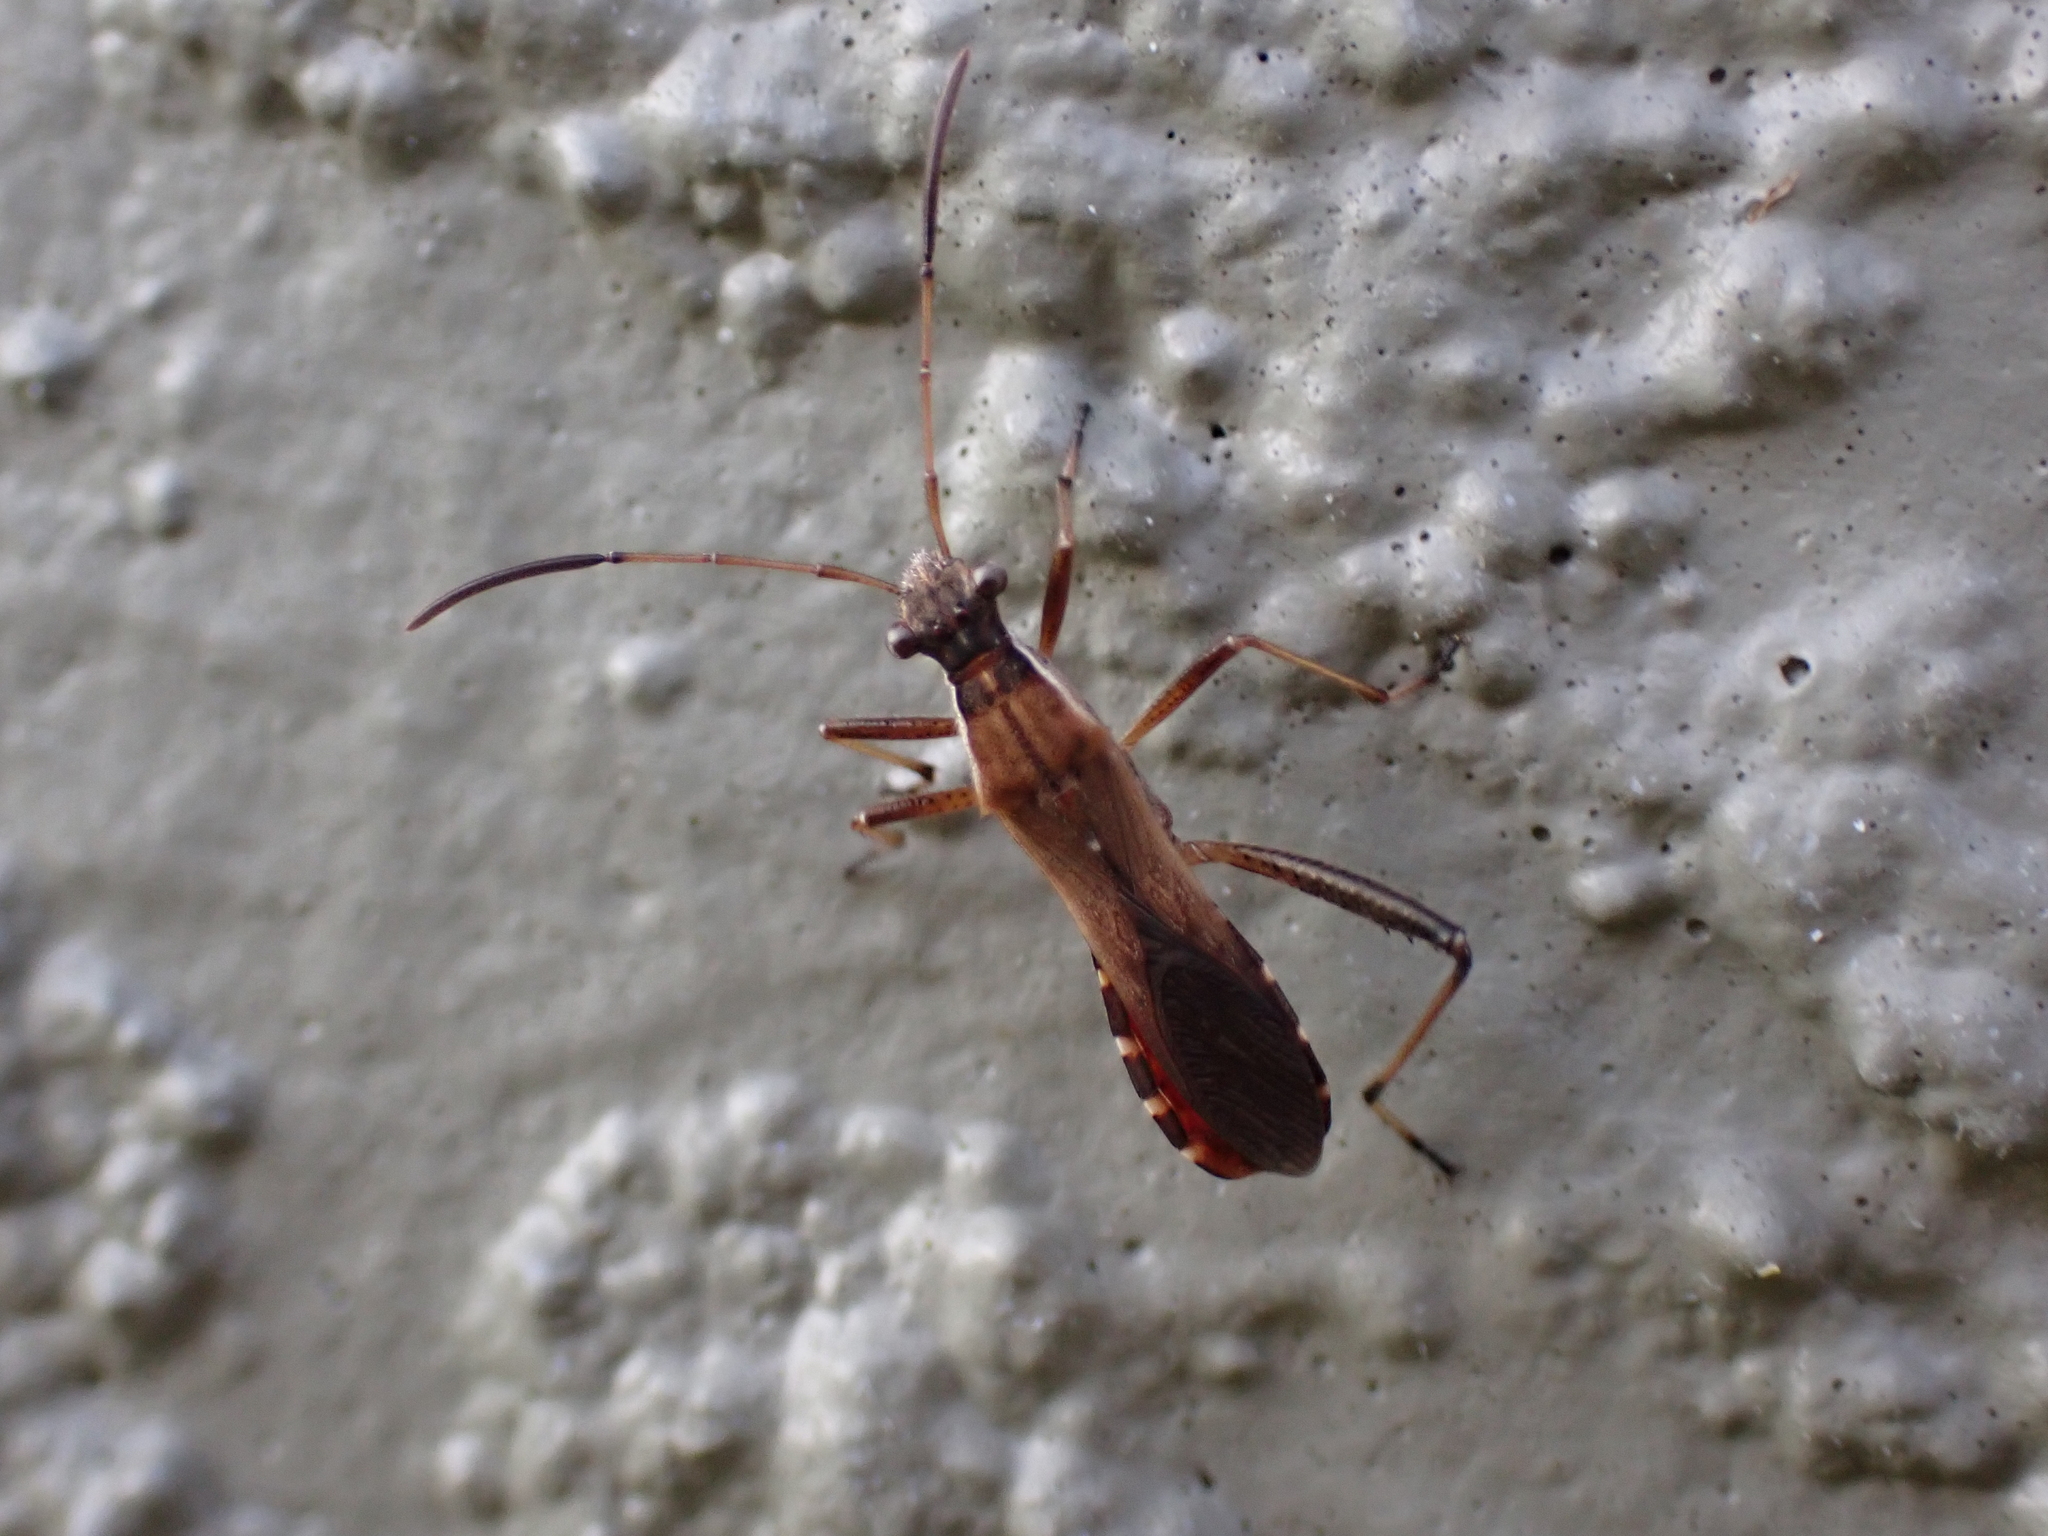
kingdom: Animalia
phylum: Arthropoda
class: Insecta
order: Hemiptera
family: Alydidae
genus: Alydus
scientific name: Alydus pilosulus
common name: Broad-headed bug
